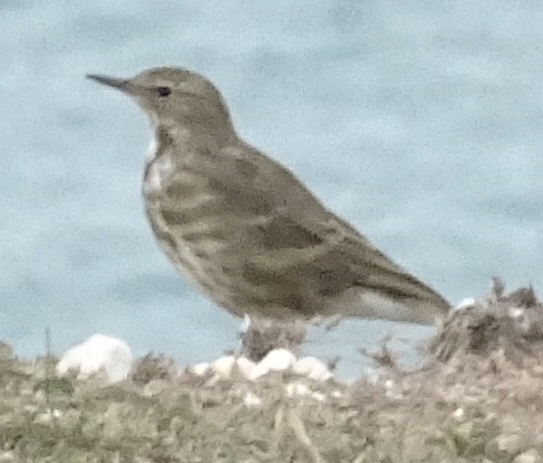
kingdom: Animalia
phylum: Chordata
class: Aves
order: Passeriformes
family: Motacillidae
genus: Anthus
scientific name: Anthus petrosus
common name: Eurasian rock pipit
